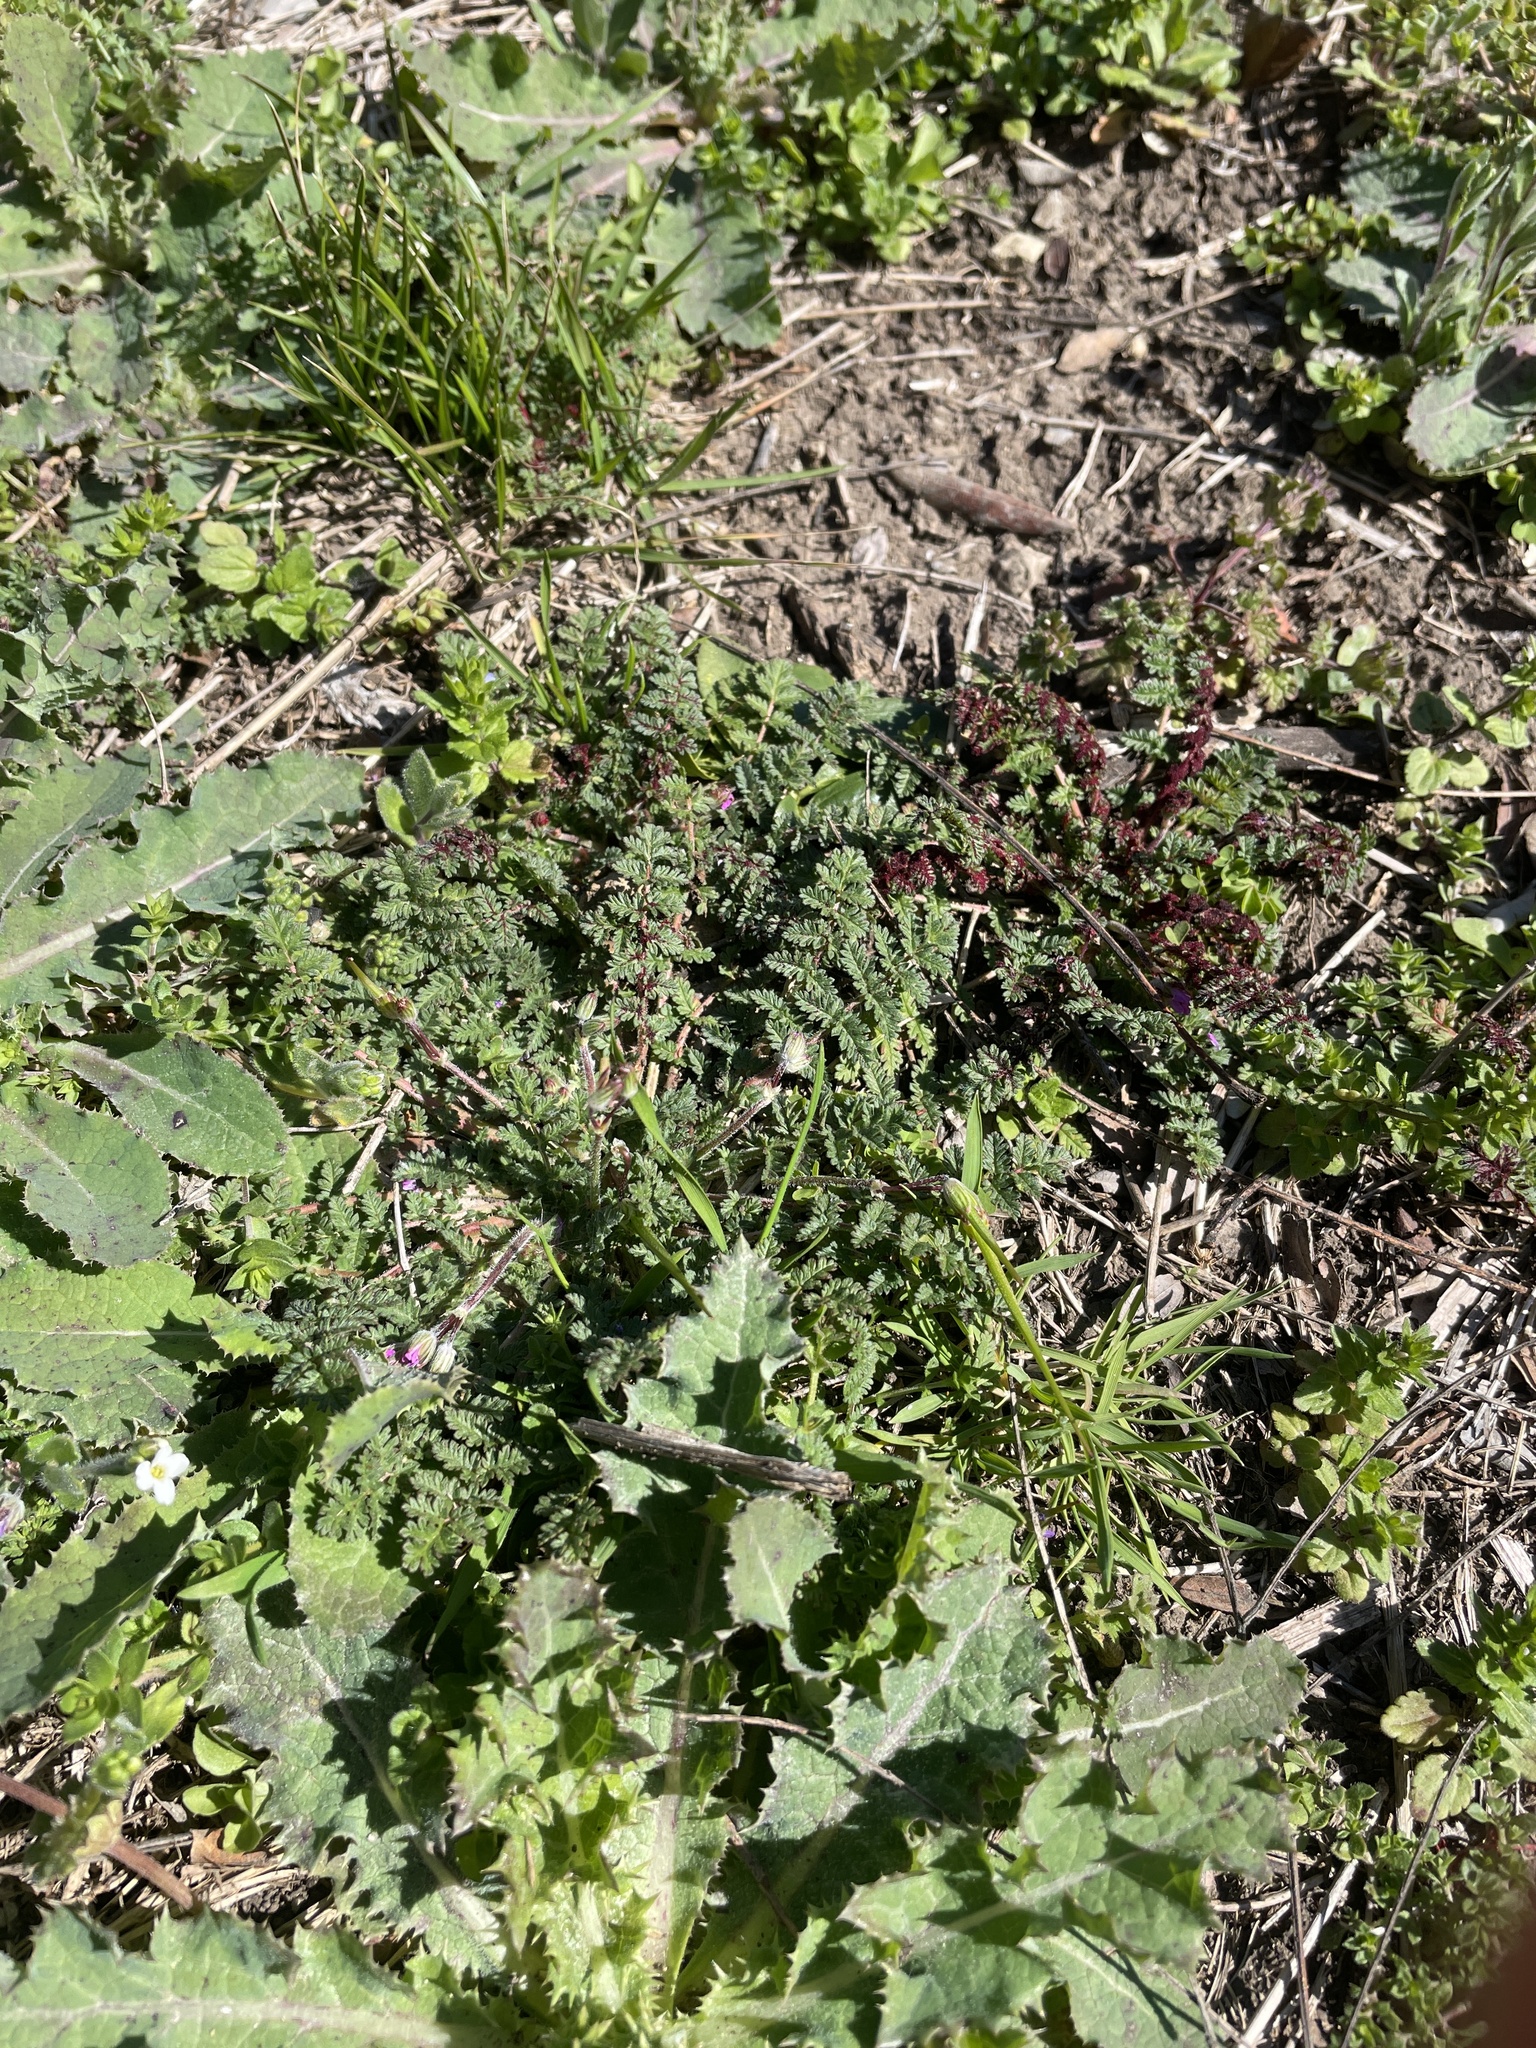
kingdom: Plantae
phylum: Tracheophyta
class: Magnoliopsida
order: Geraniales
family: Geraniaceae
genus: Erodium
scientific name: Erodium cicutarium
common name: Common stork's-bill
